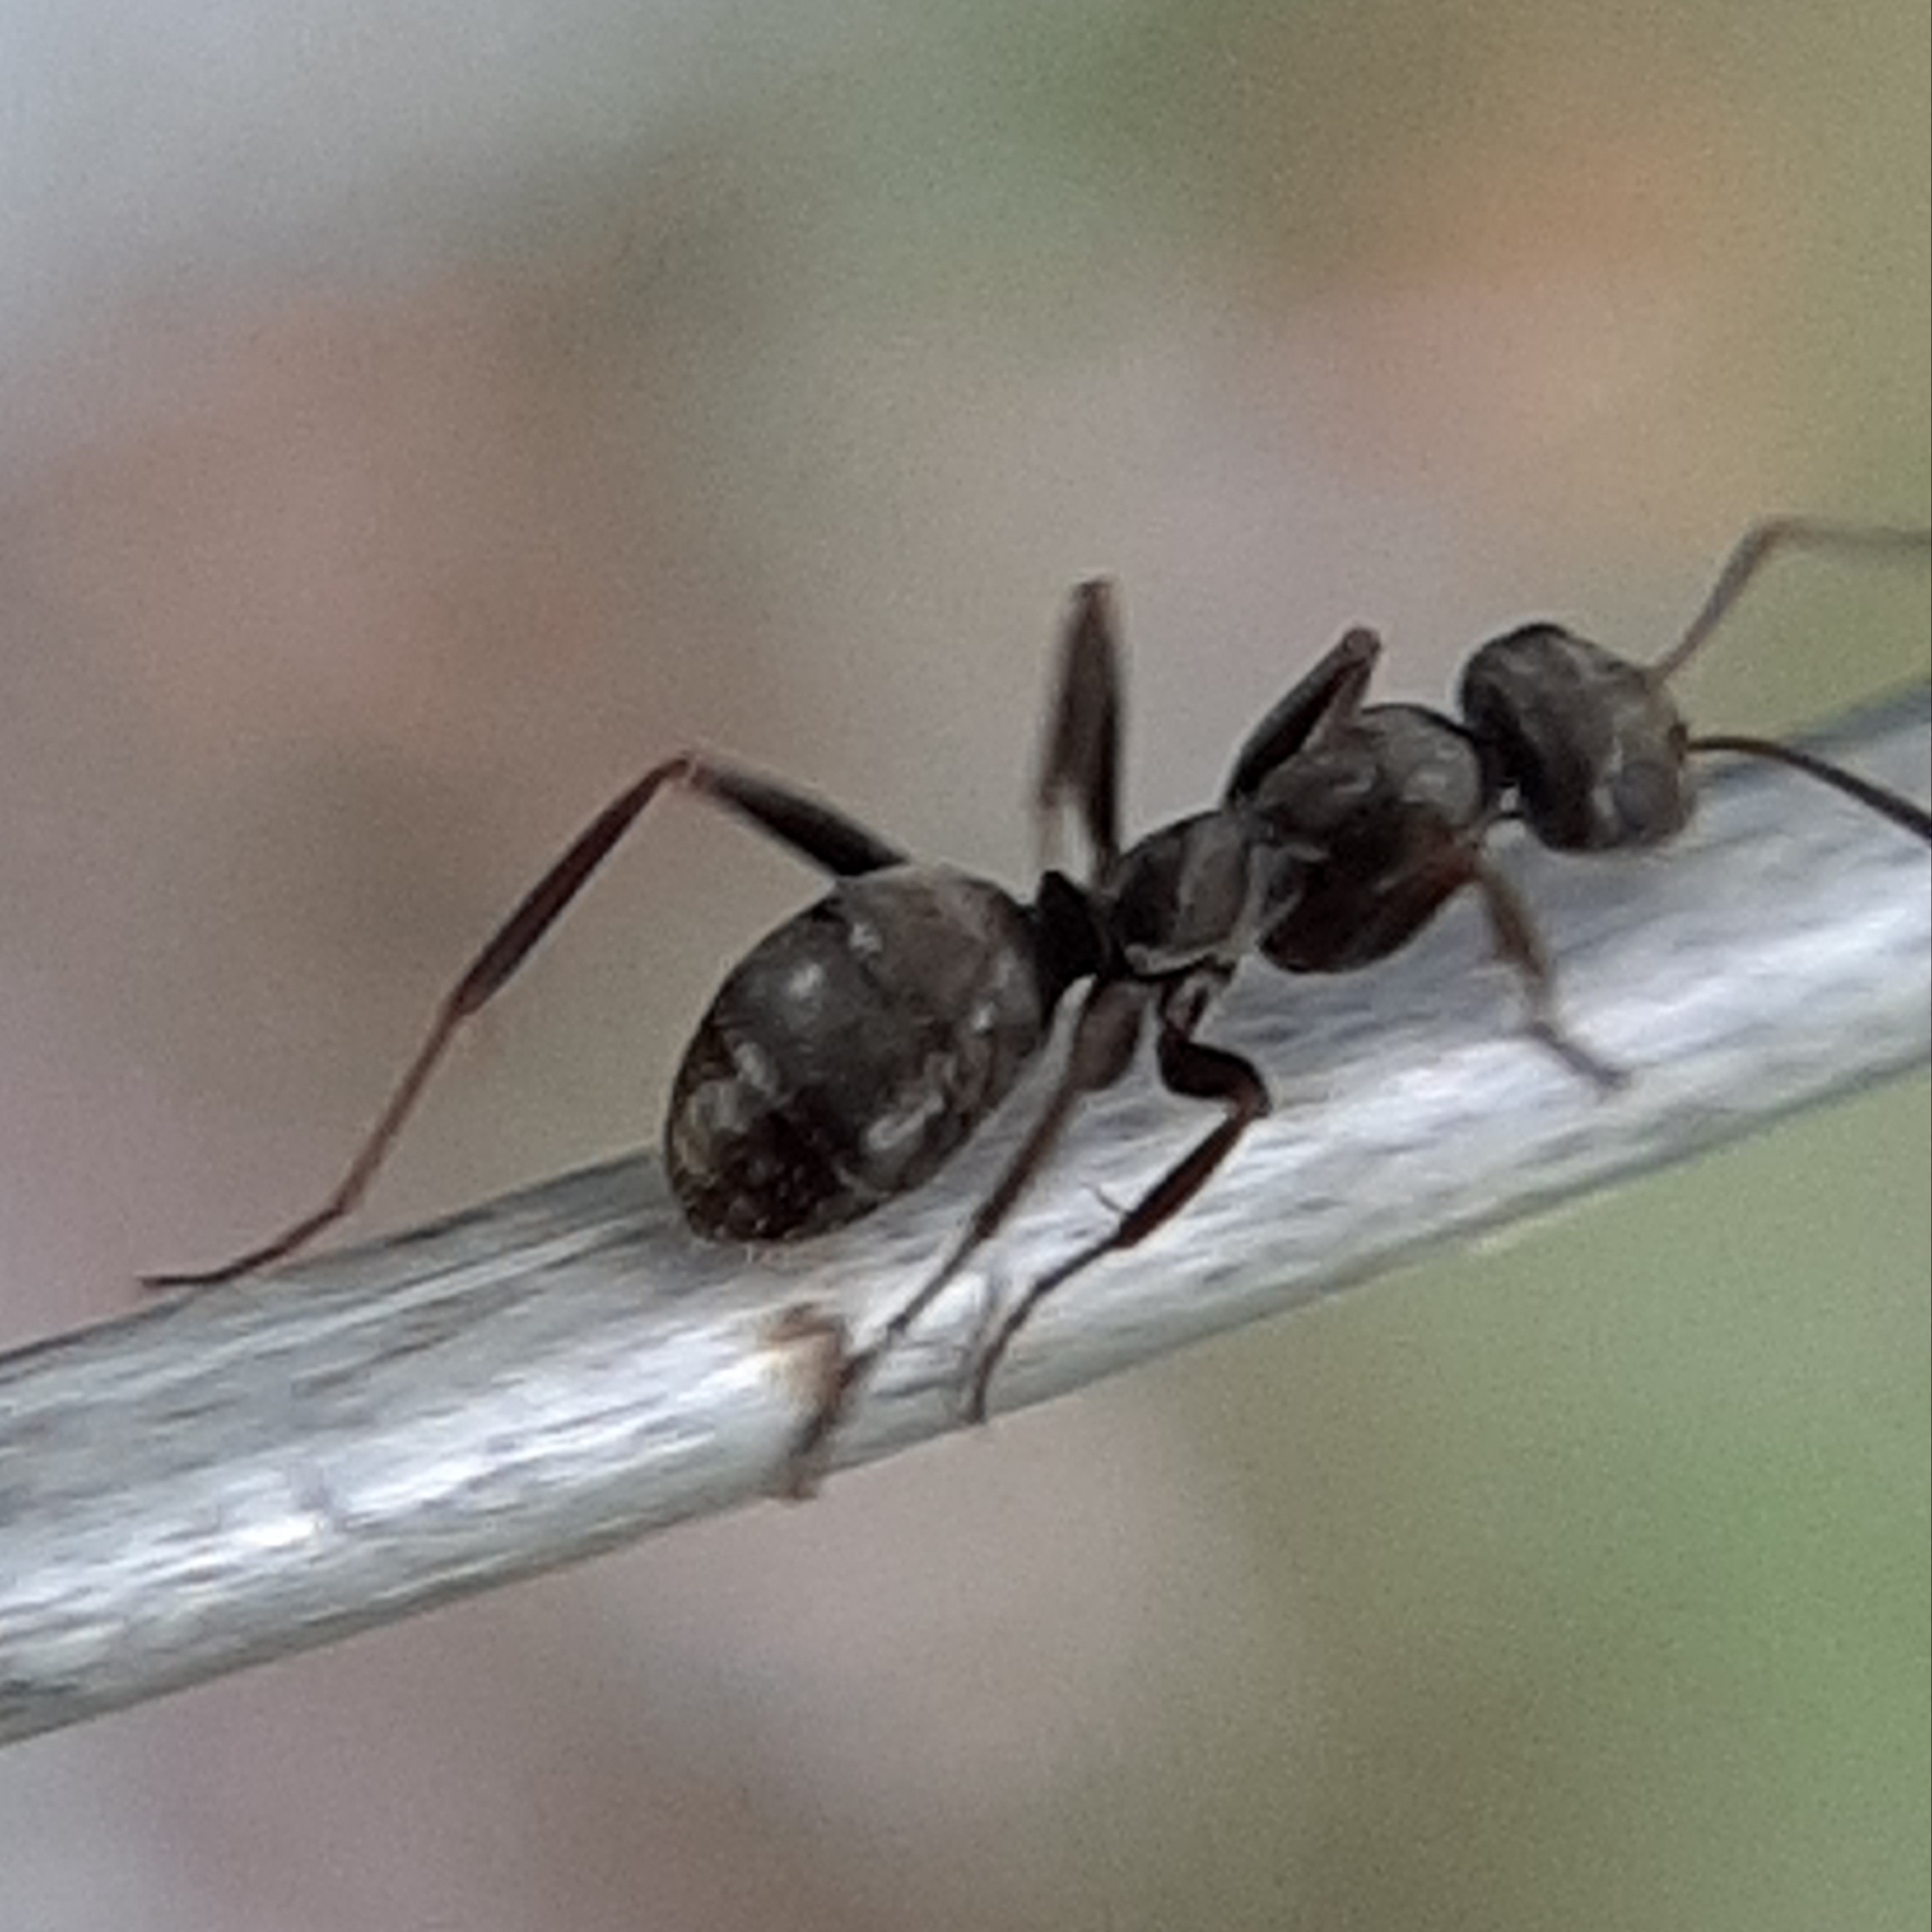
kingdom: Animalia
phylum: Arthropoda
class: Insecta
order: Hymenoptera
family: Formicidae
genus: Formica
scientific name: Formica subsericea
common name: Silky field ant
